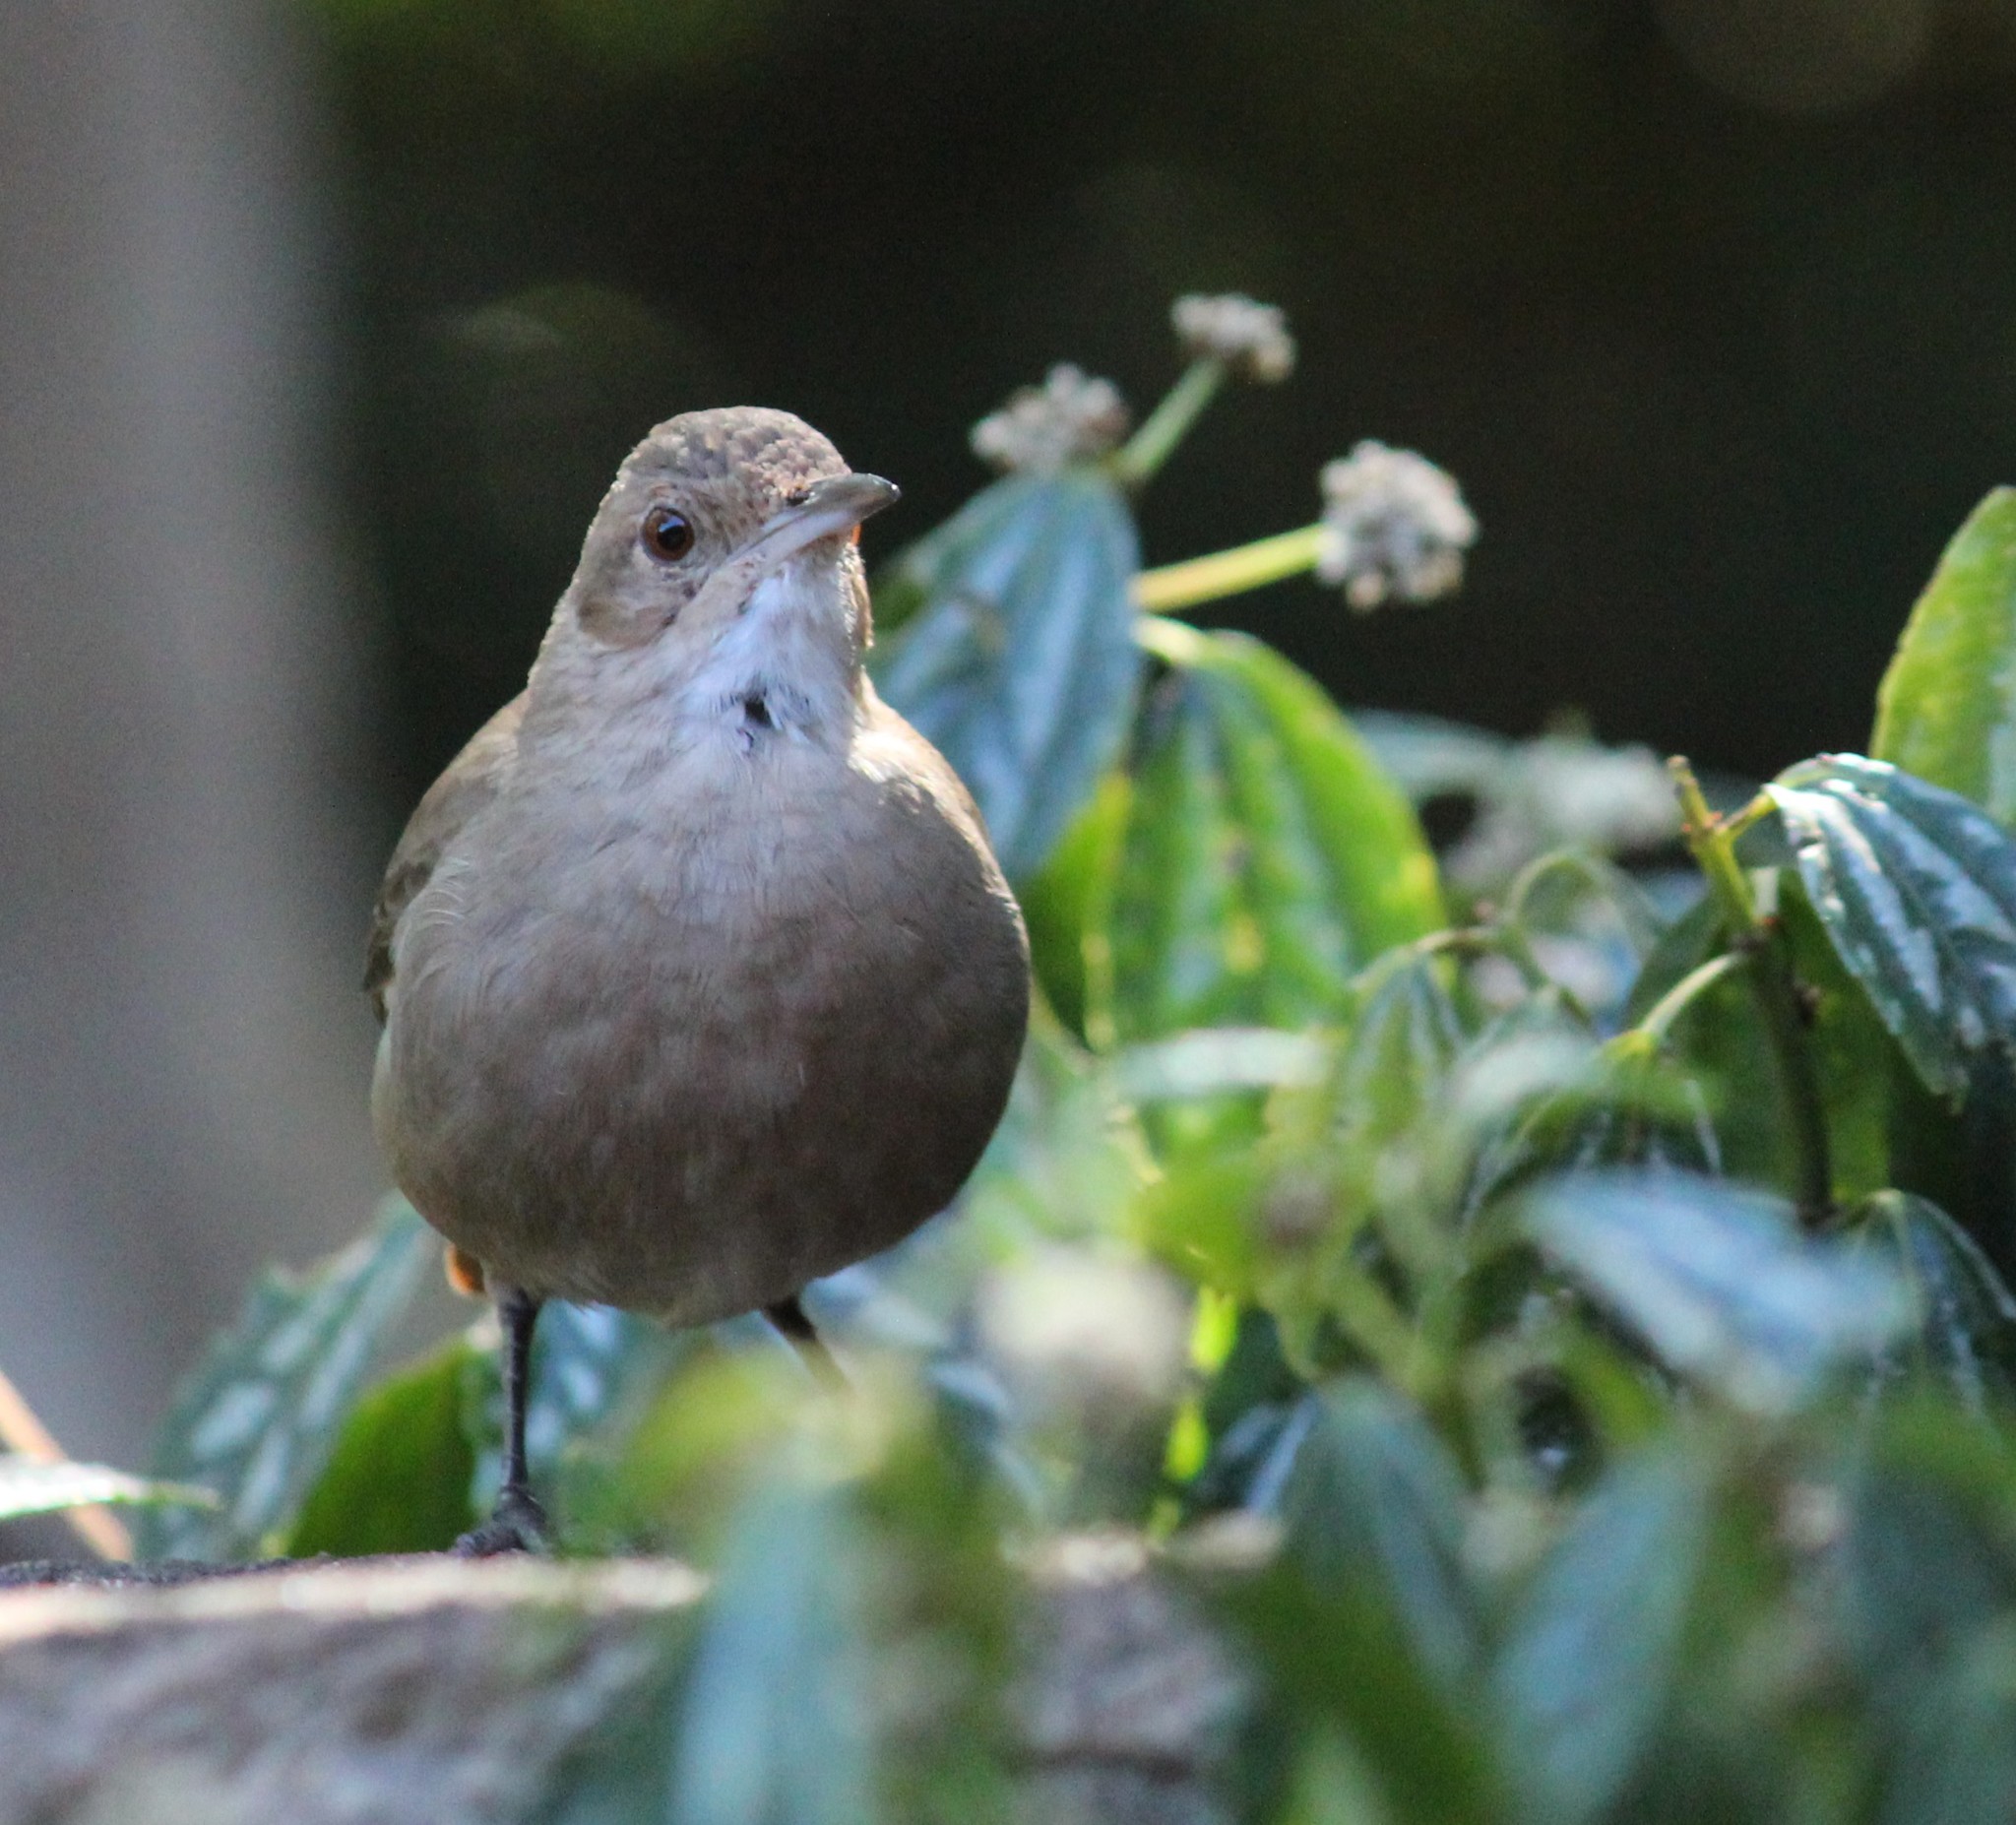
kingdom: Animalia
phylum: Chordata
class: Aves
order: Passeriformes
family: Furnariidae
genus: Furnarius
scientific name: Furnarius rufus
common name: Rufous hornero
